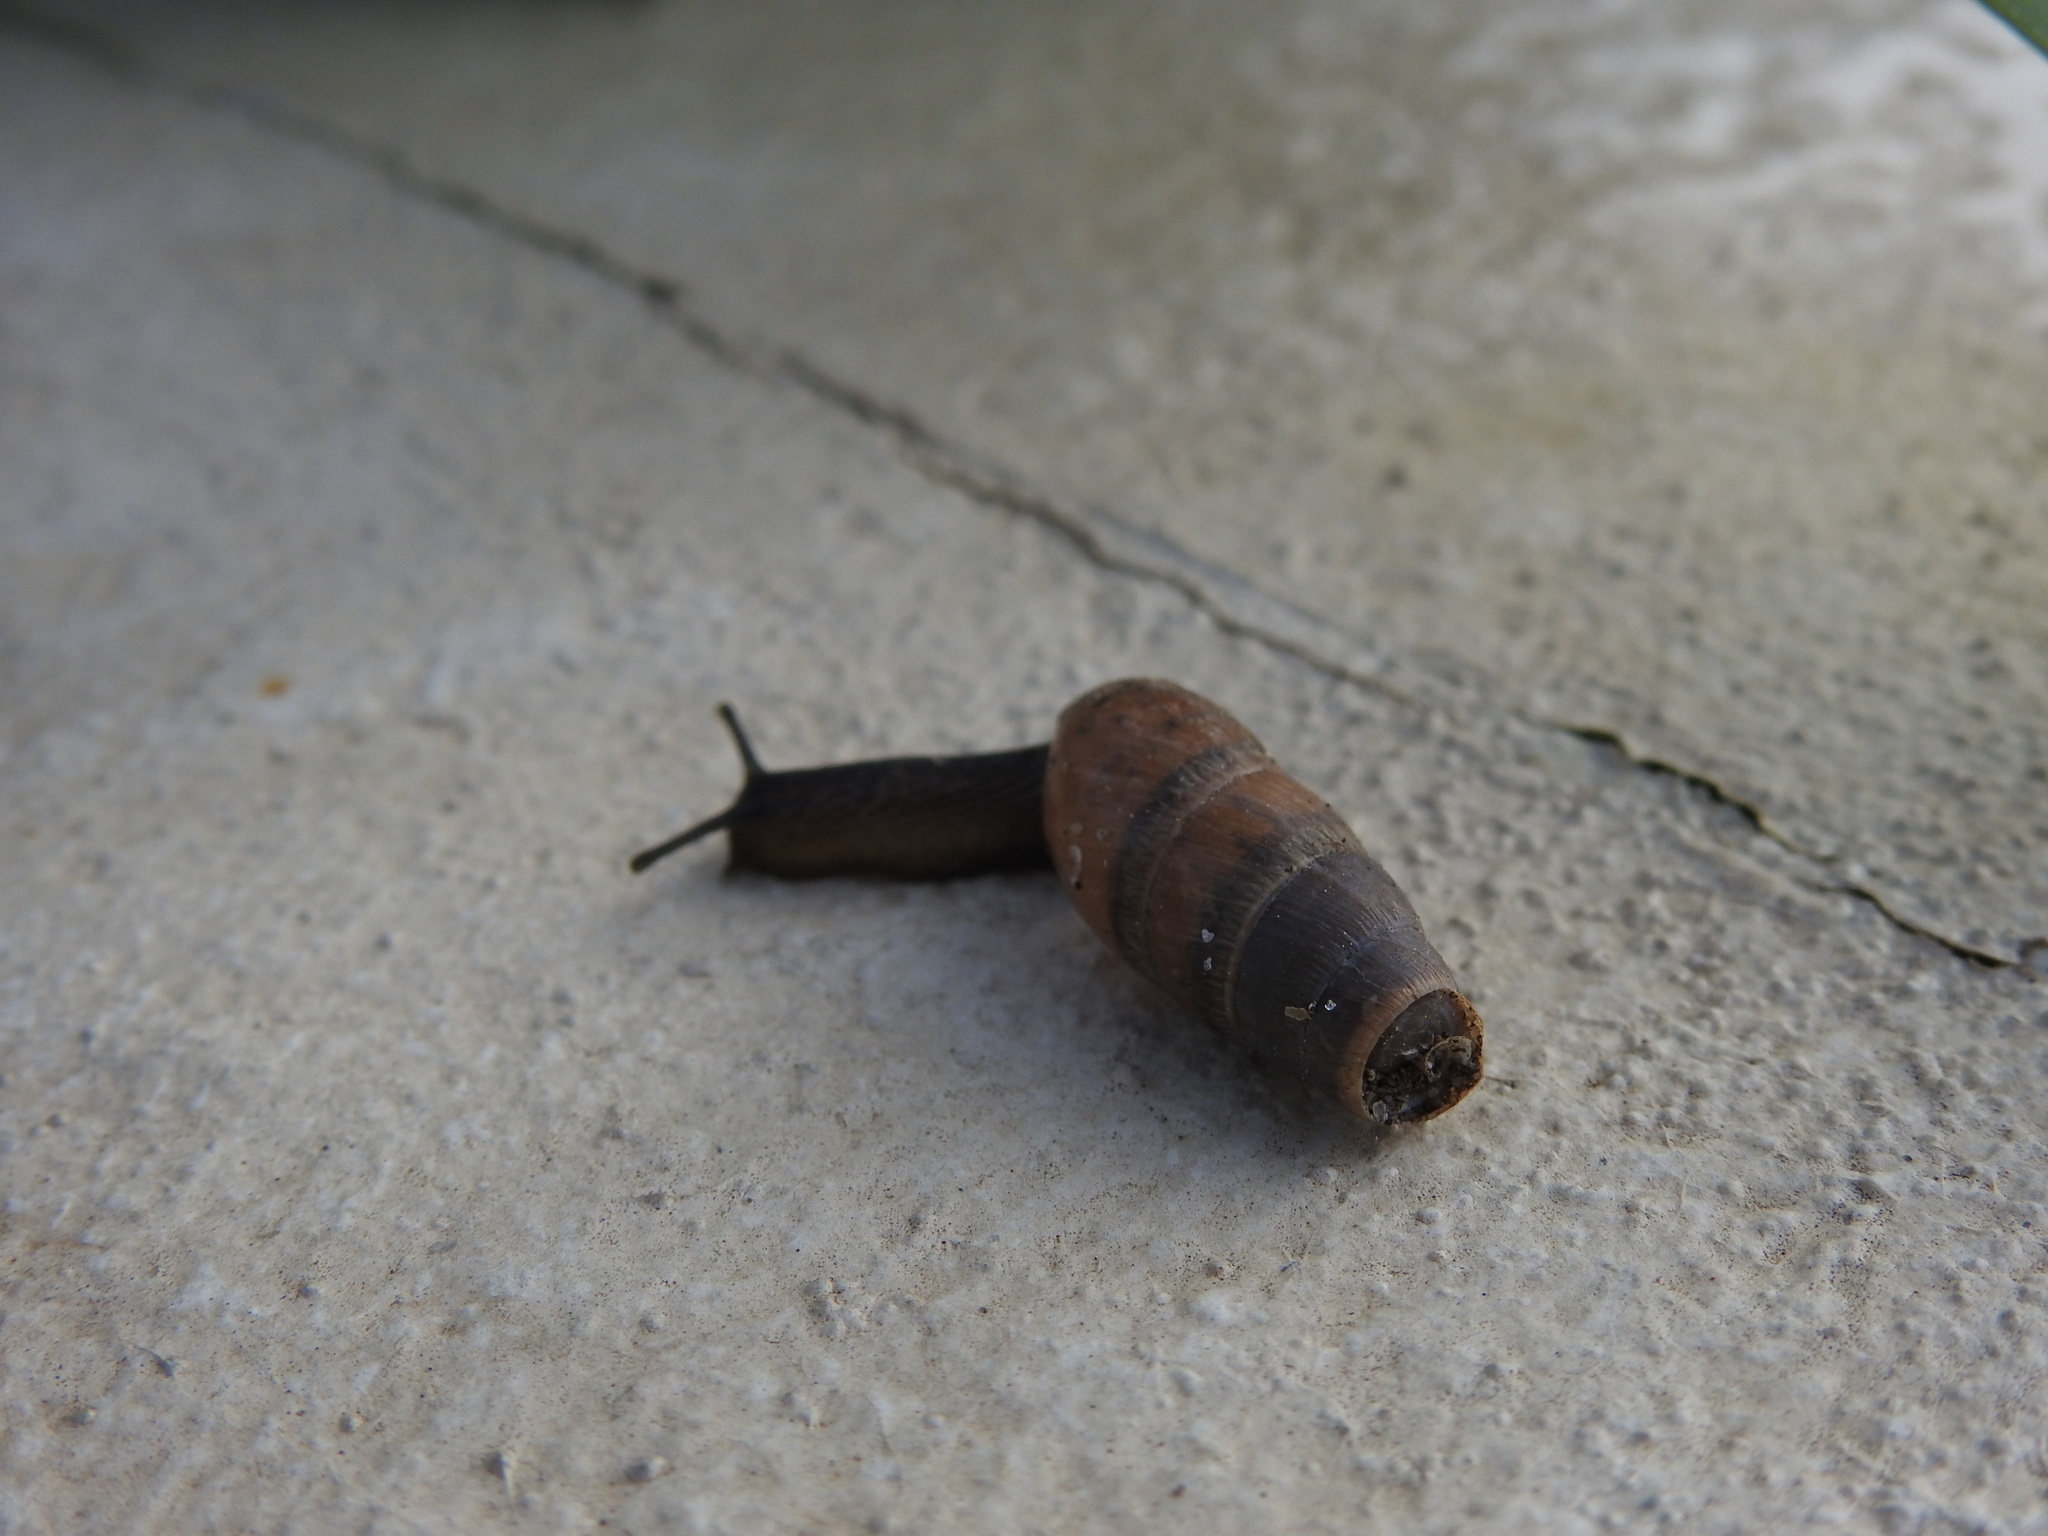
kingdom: Animalia
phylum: Mollusca
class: Gastropoda
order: Stylommatophora
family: Achatinidae
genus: Rumina
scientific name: Rumina decollata
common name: Decollate snail
